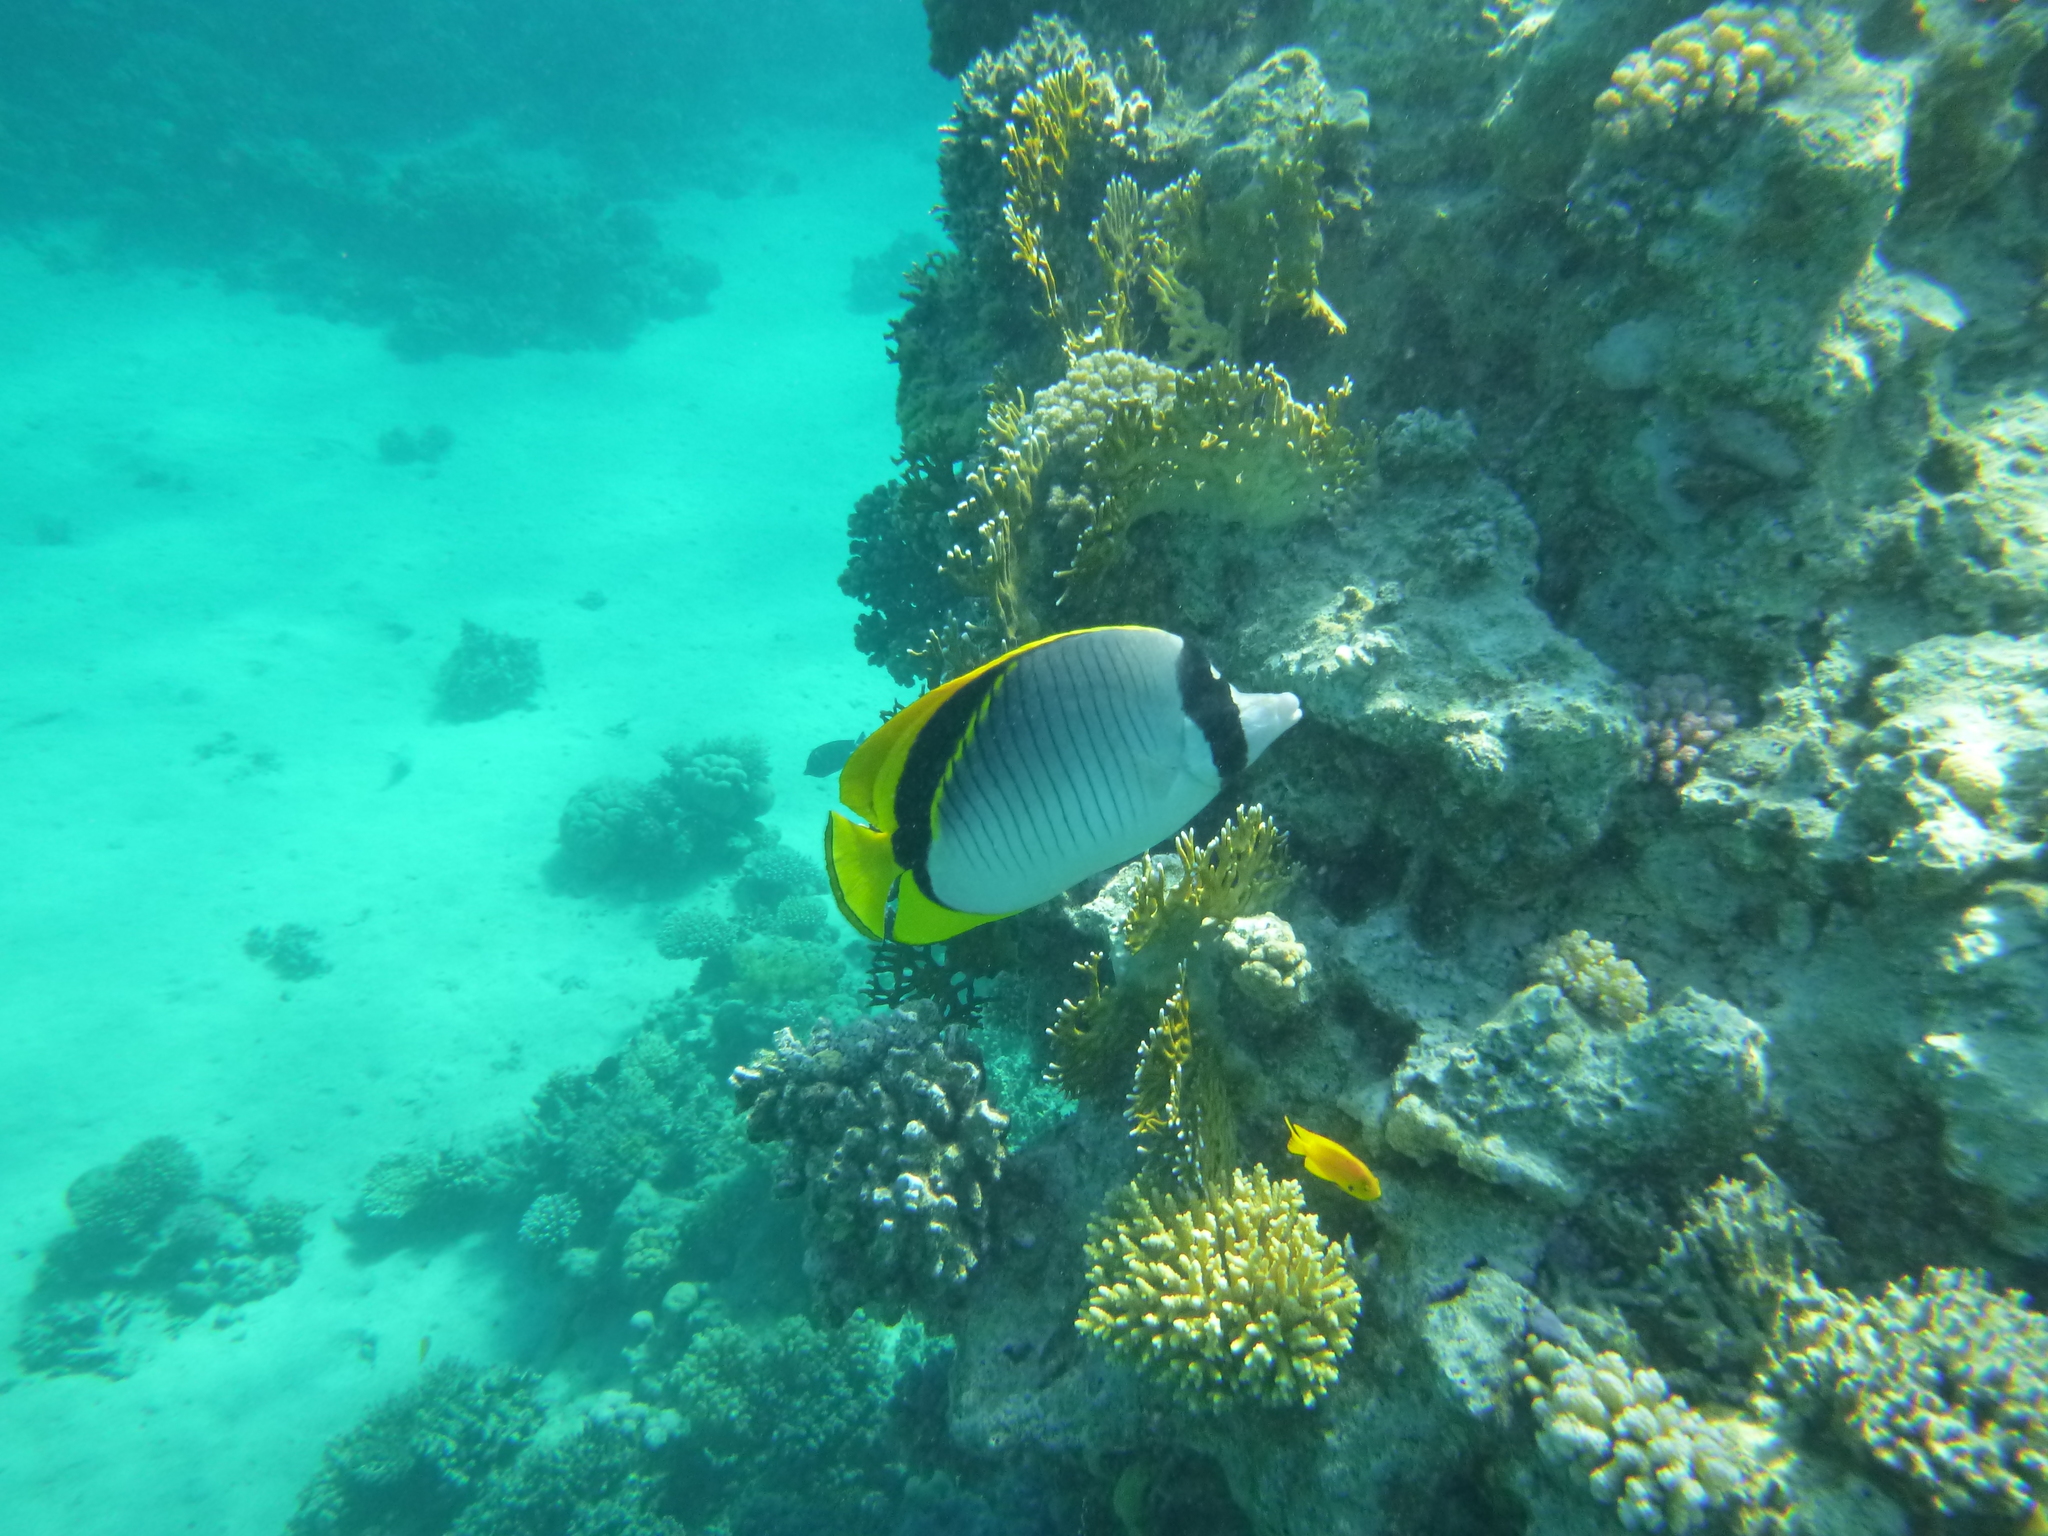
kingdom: Animalia
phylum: Chordata
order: Perciformes
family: Chaetodontidae
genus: Chaetodon
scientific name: Chaetodon lineolatus
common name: Lined butterflyfish
